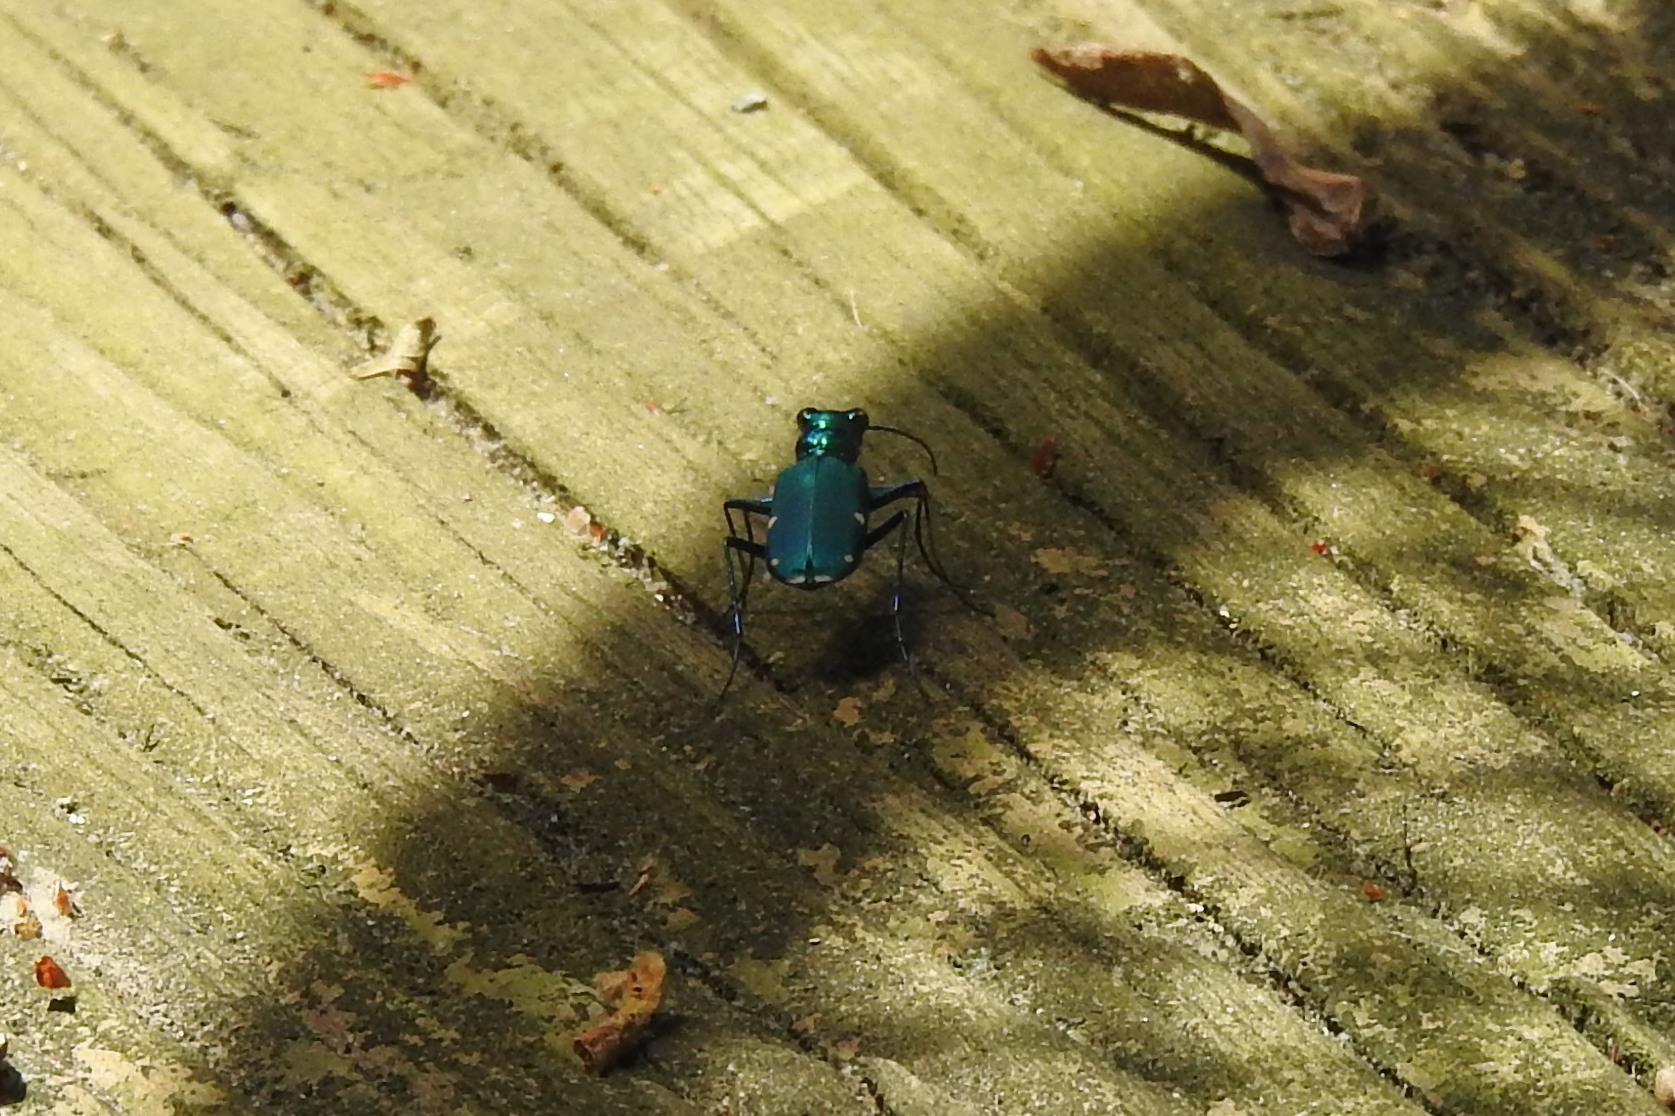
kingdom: Animalia
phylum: Arthropoda
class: Insecta
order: Coleoptera
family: Carabidae
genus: Cicindela
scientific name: Cicindela sexguttata
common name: Six-spotted tiger beetle
